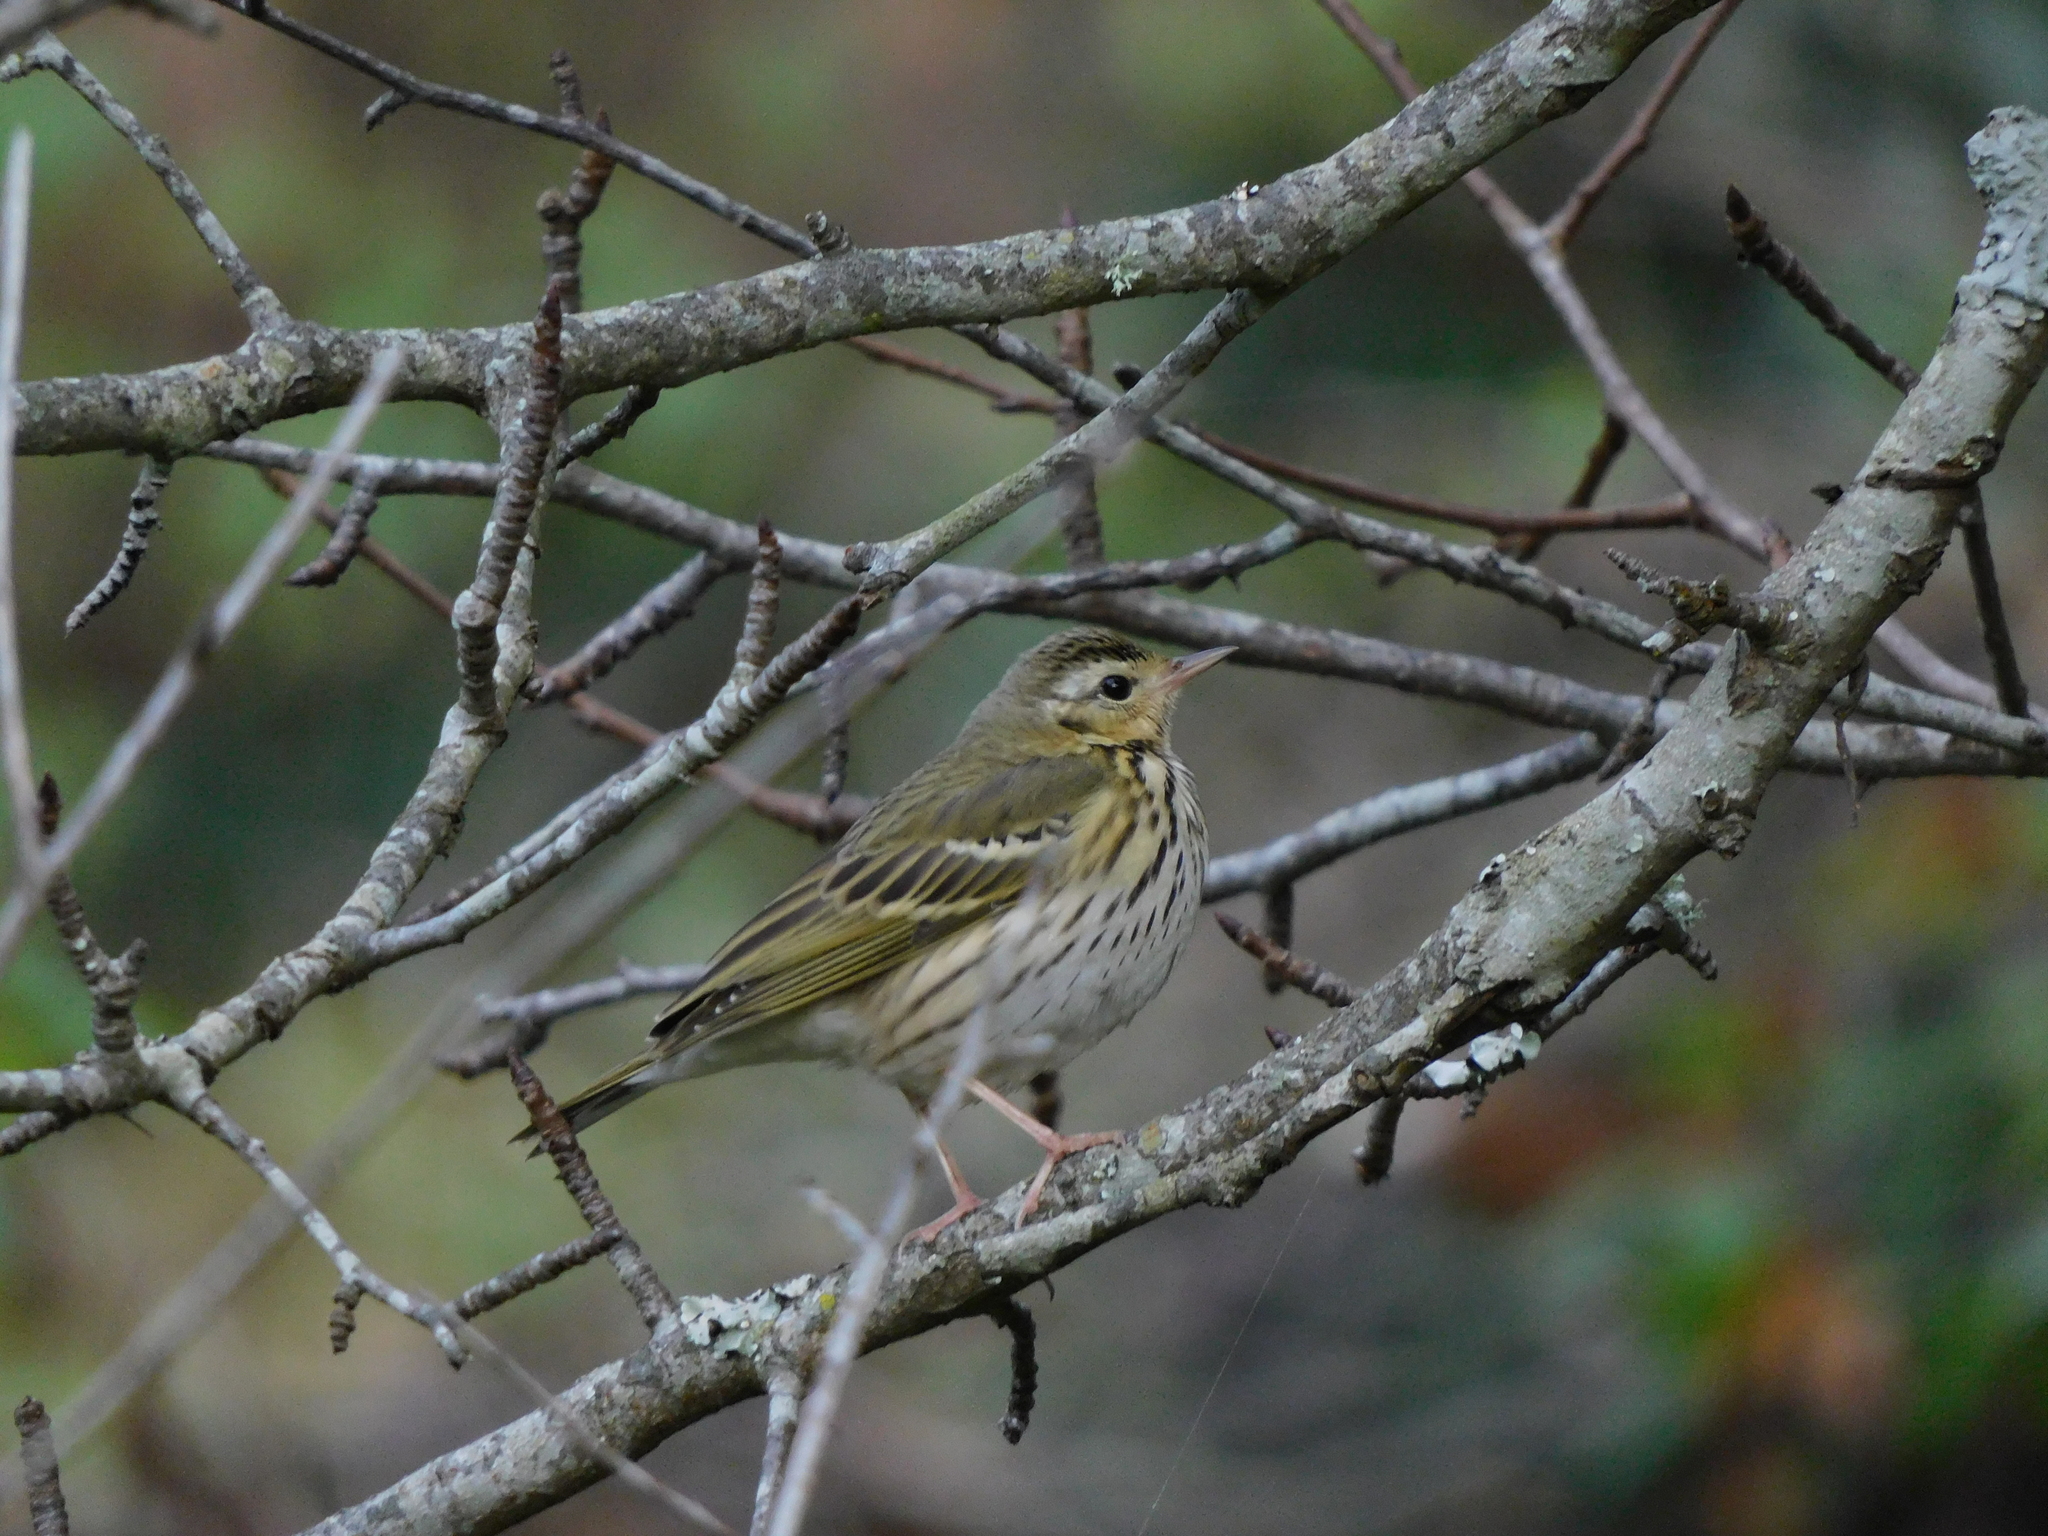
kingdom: Animalia
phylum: Chordata
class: Aves
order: Passeriformes
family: Motacillidae
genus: Anthus
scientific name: Anthus hodgsoni
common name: Olive-backed pipit
